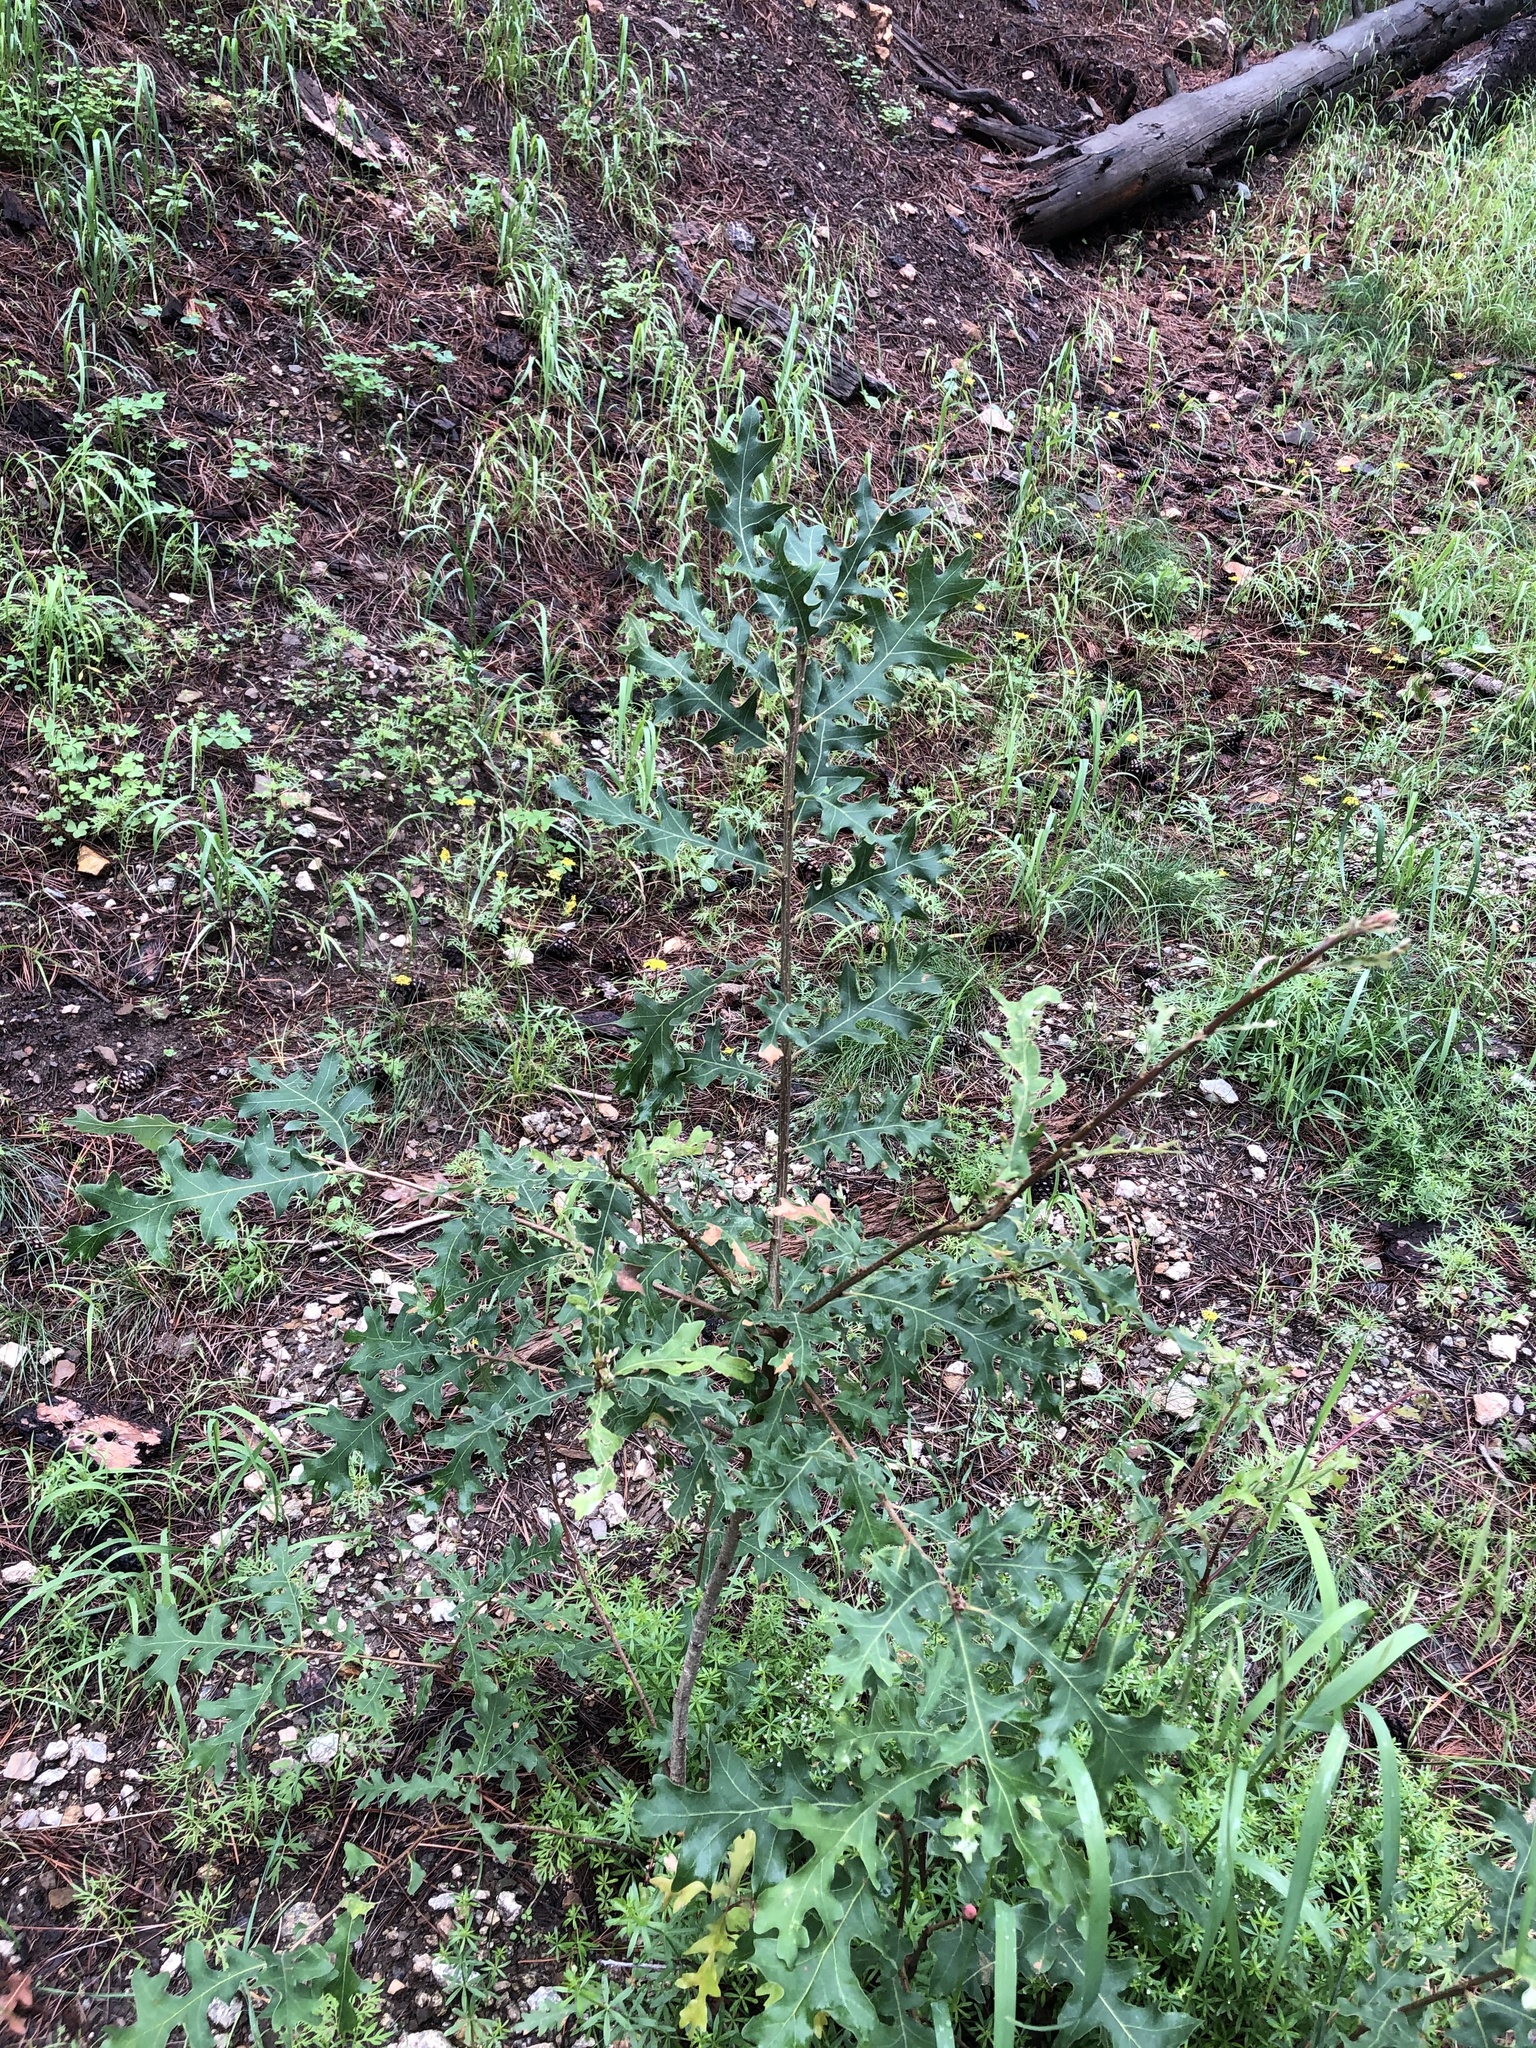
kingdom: Plantae
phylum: Tracheophyta
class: Magnoliopsida
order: Fagales
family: Fagaceae
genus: Quercus
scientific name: Quercus gambelii
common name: Gambel oak
